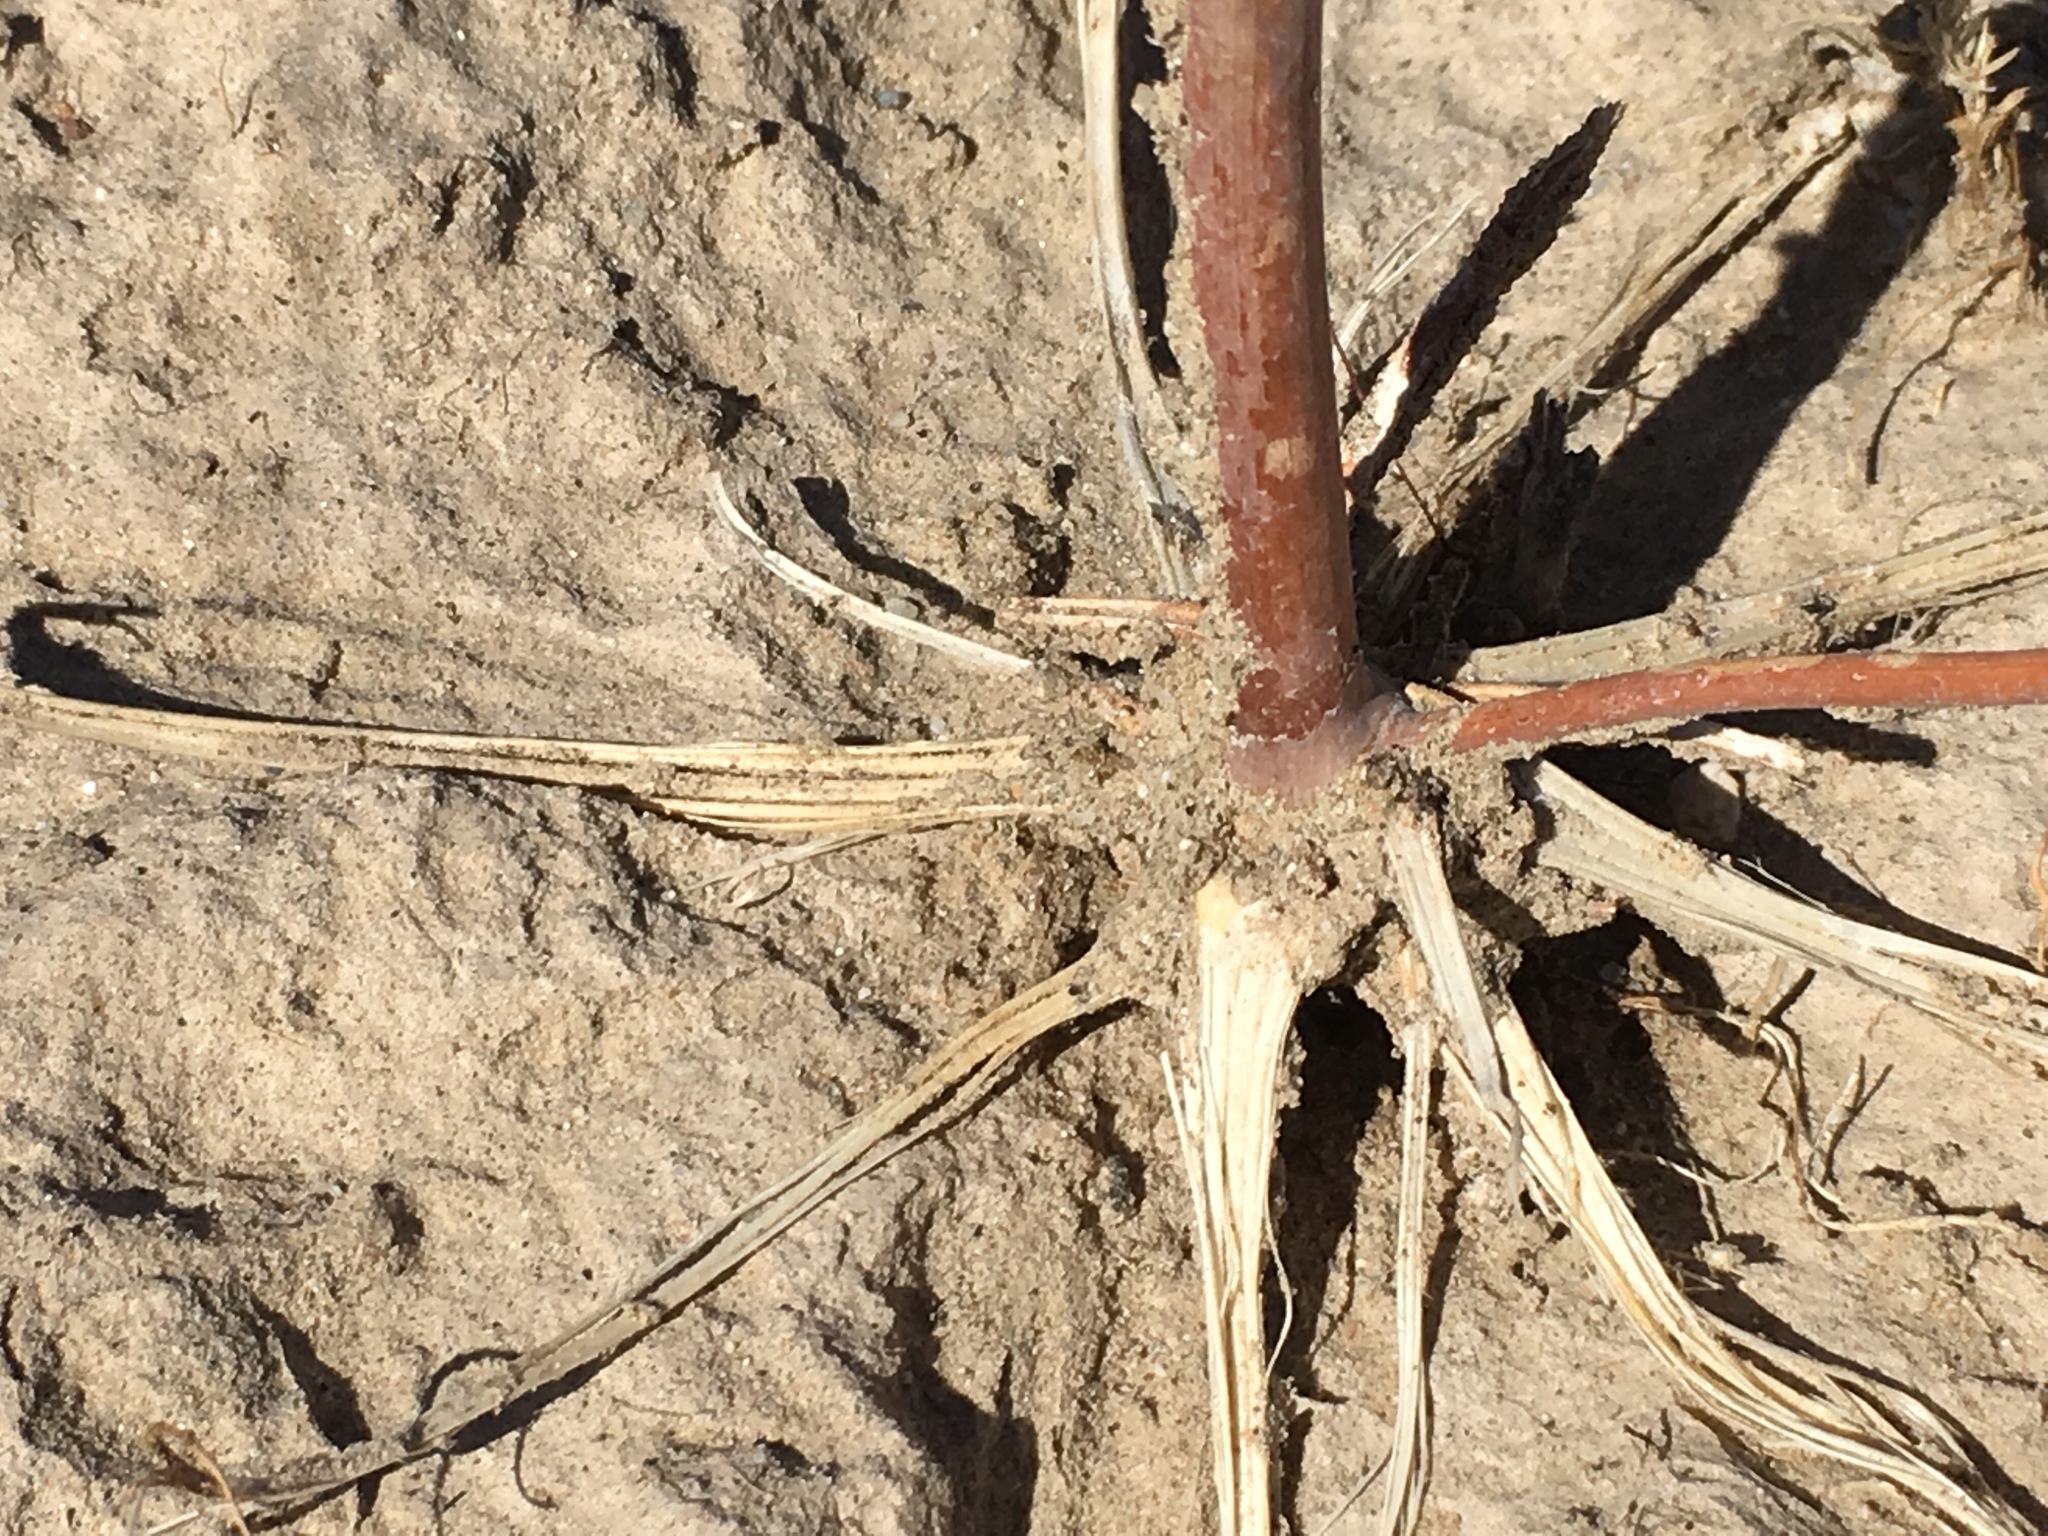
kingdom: Plantae
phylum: Tracheophyta
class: Magnoliopsida
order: Caryophyllales
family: Polygonaceae
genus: Eriogonum
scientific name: Eriogonum trichopes
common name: Little desert trumpet
